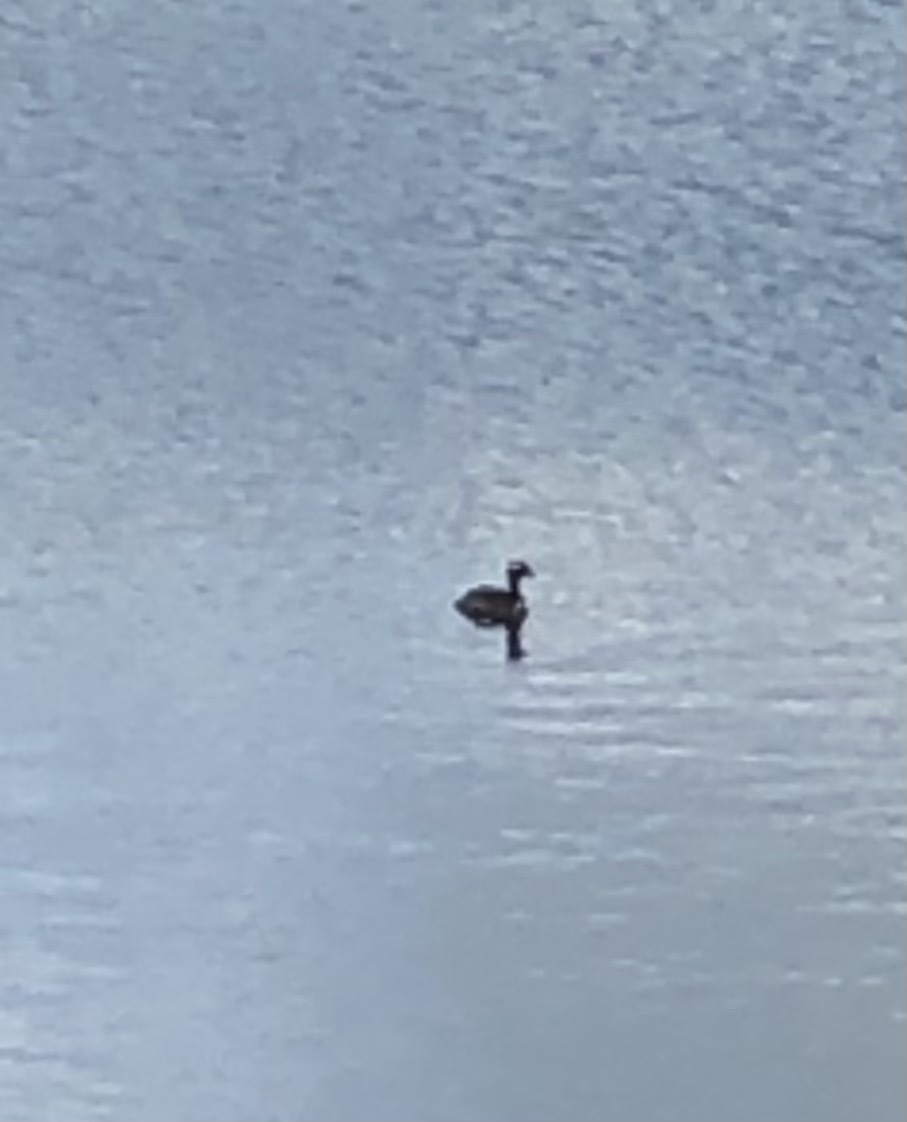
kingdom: Animalia
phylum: Chordata
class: Aves
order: Podicipediformes
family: Podicipedidae
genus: Podiceps
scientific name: Podiceps auritus
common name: Horned grebe
